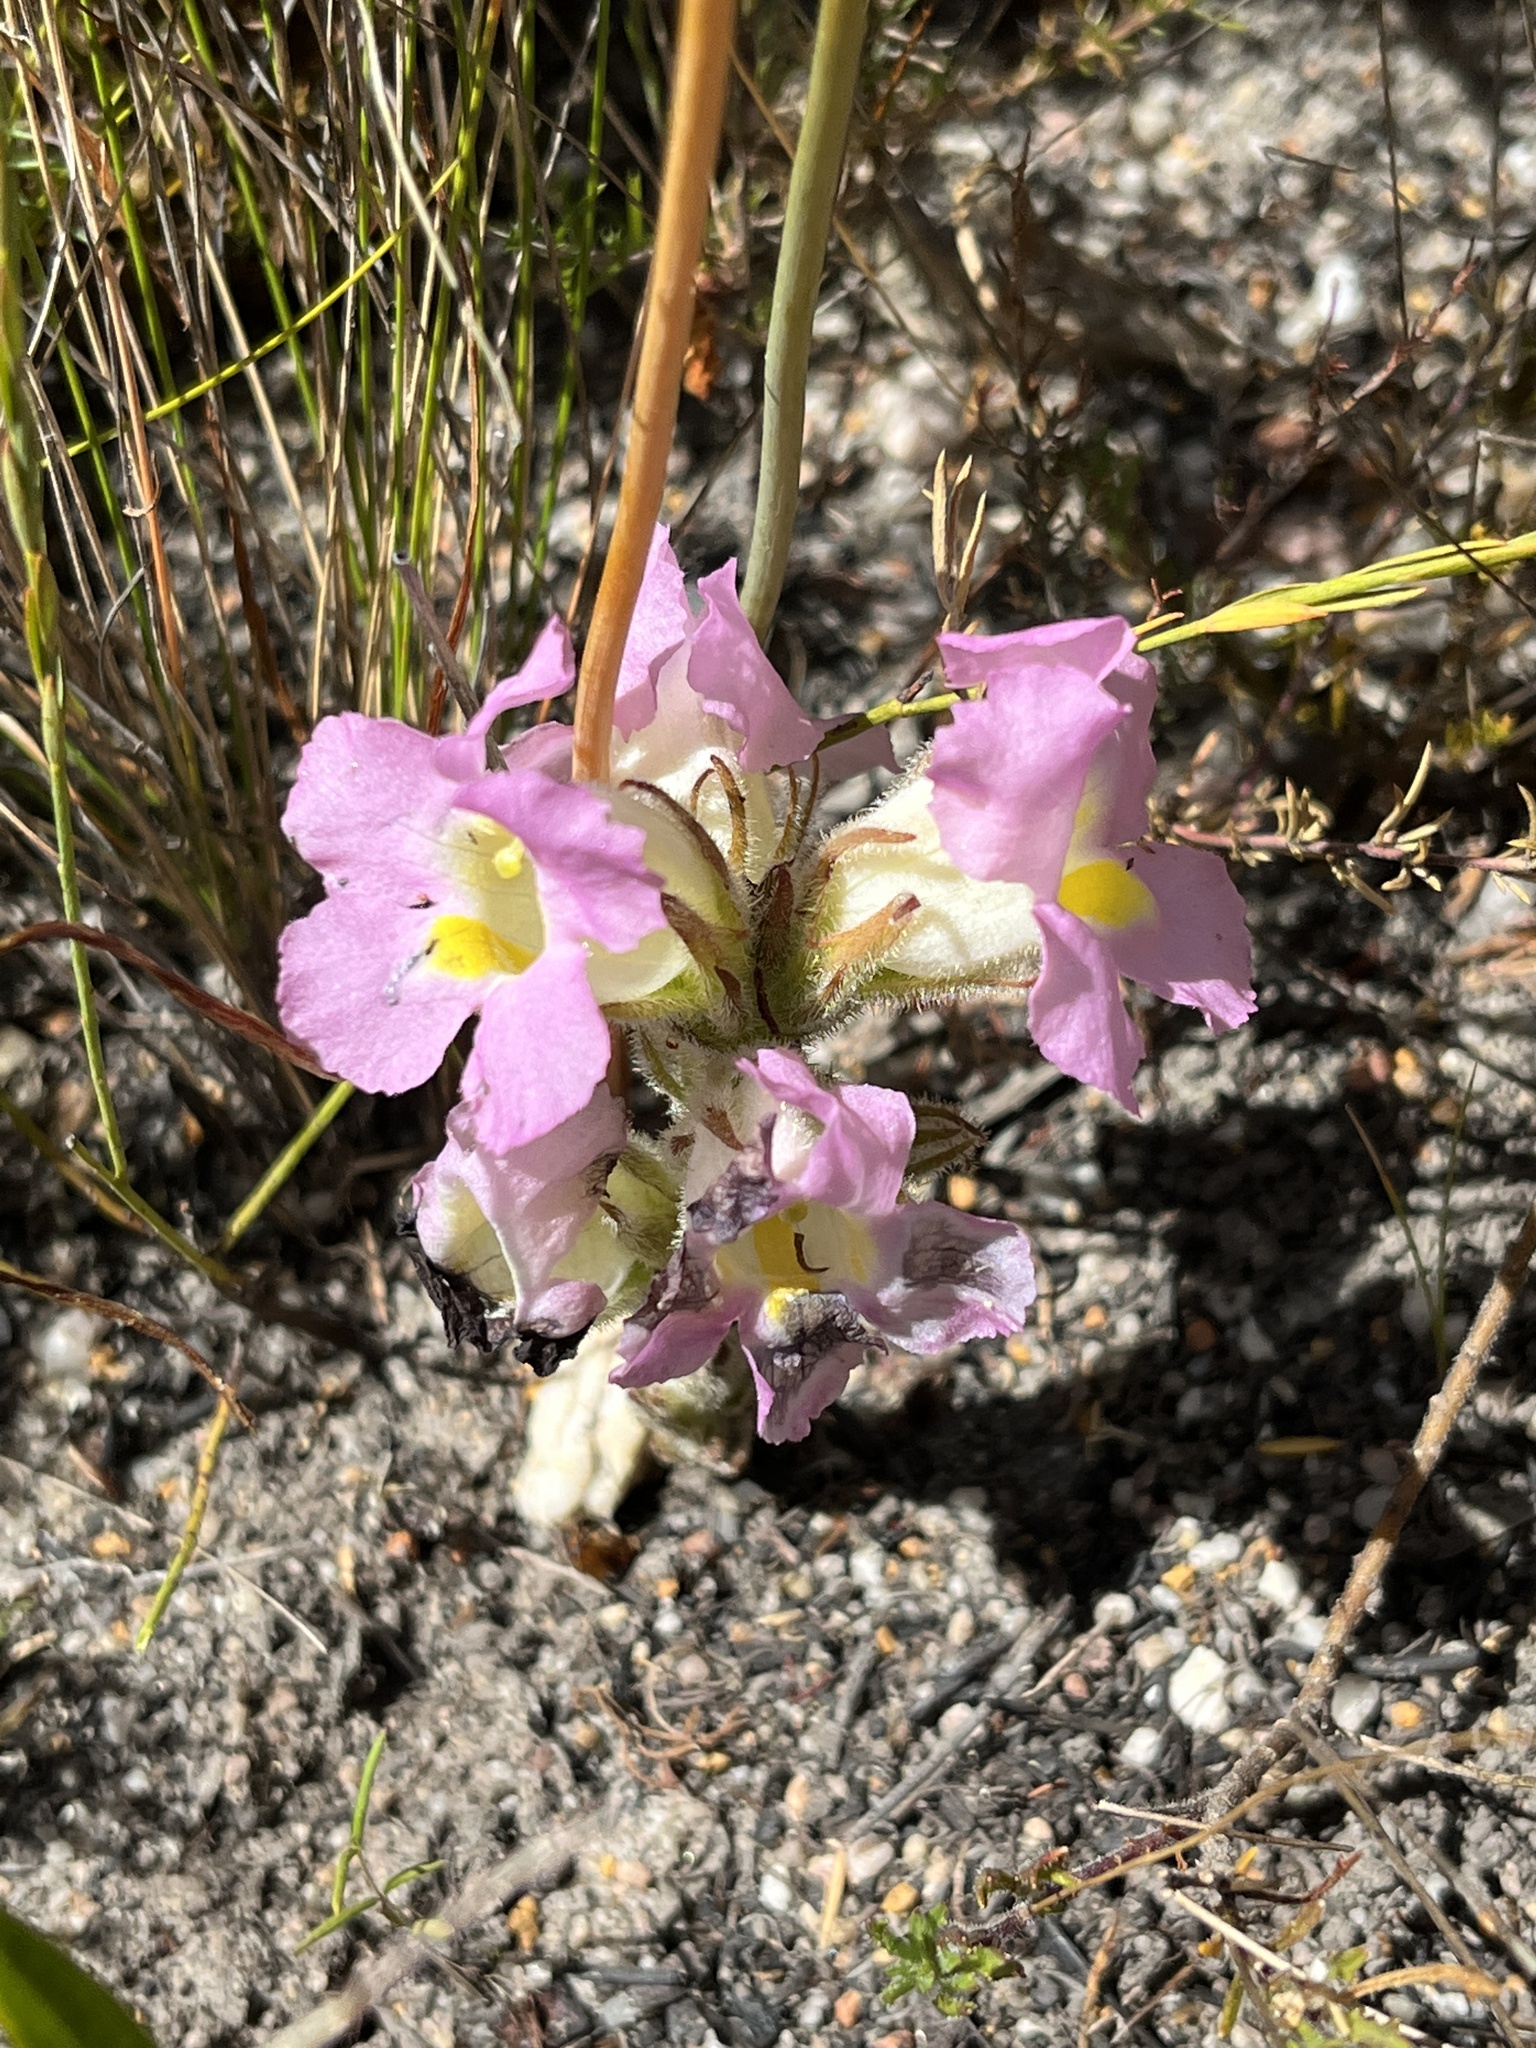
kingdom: Plantae
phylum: Tracheophyta
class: Magnoliopsida
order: Lamiales
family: Orobanchaceae
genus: Harveya
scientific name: Harveya purpurea
